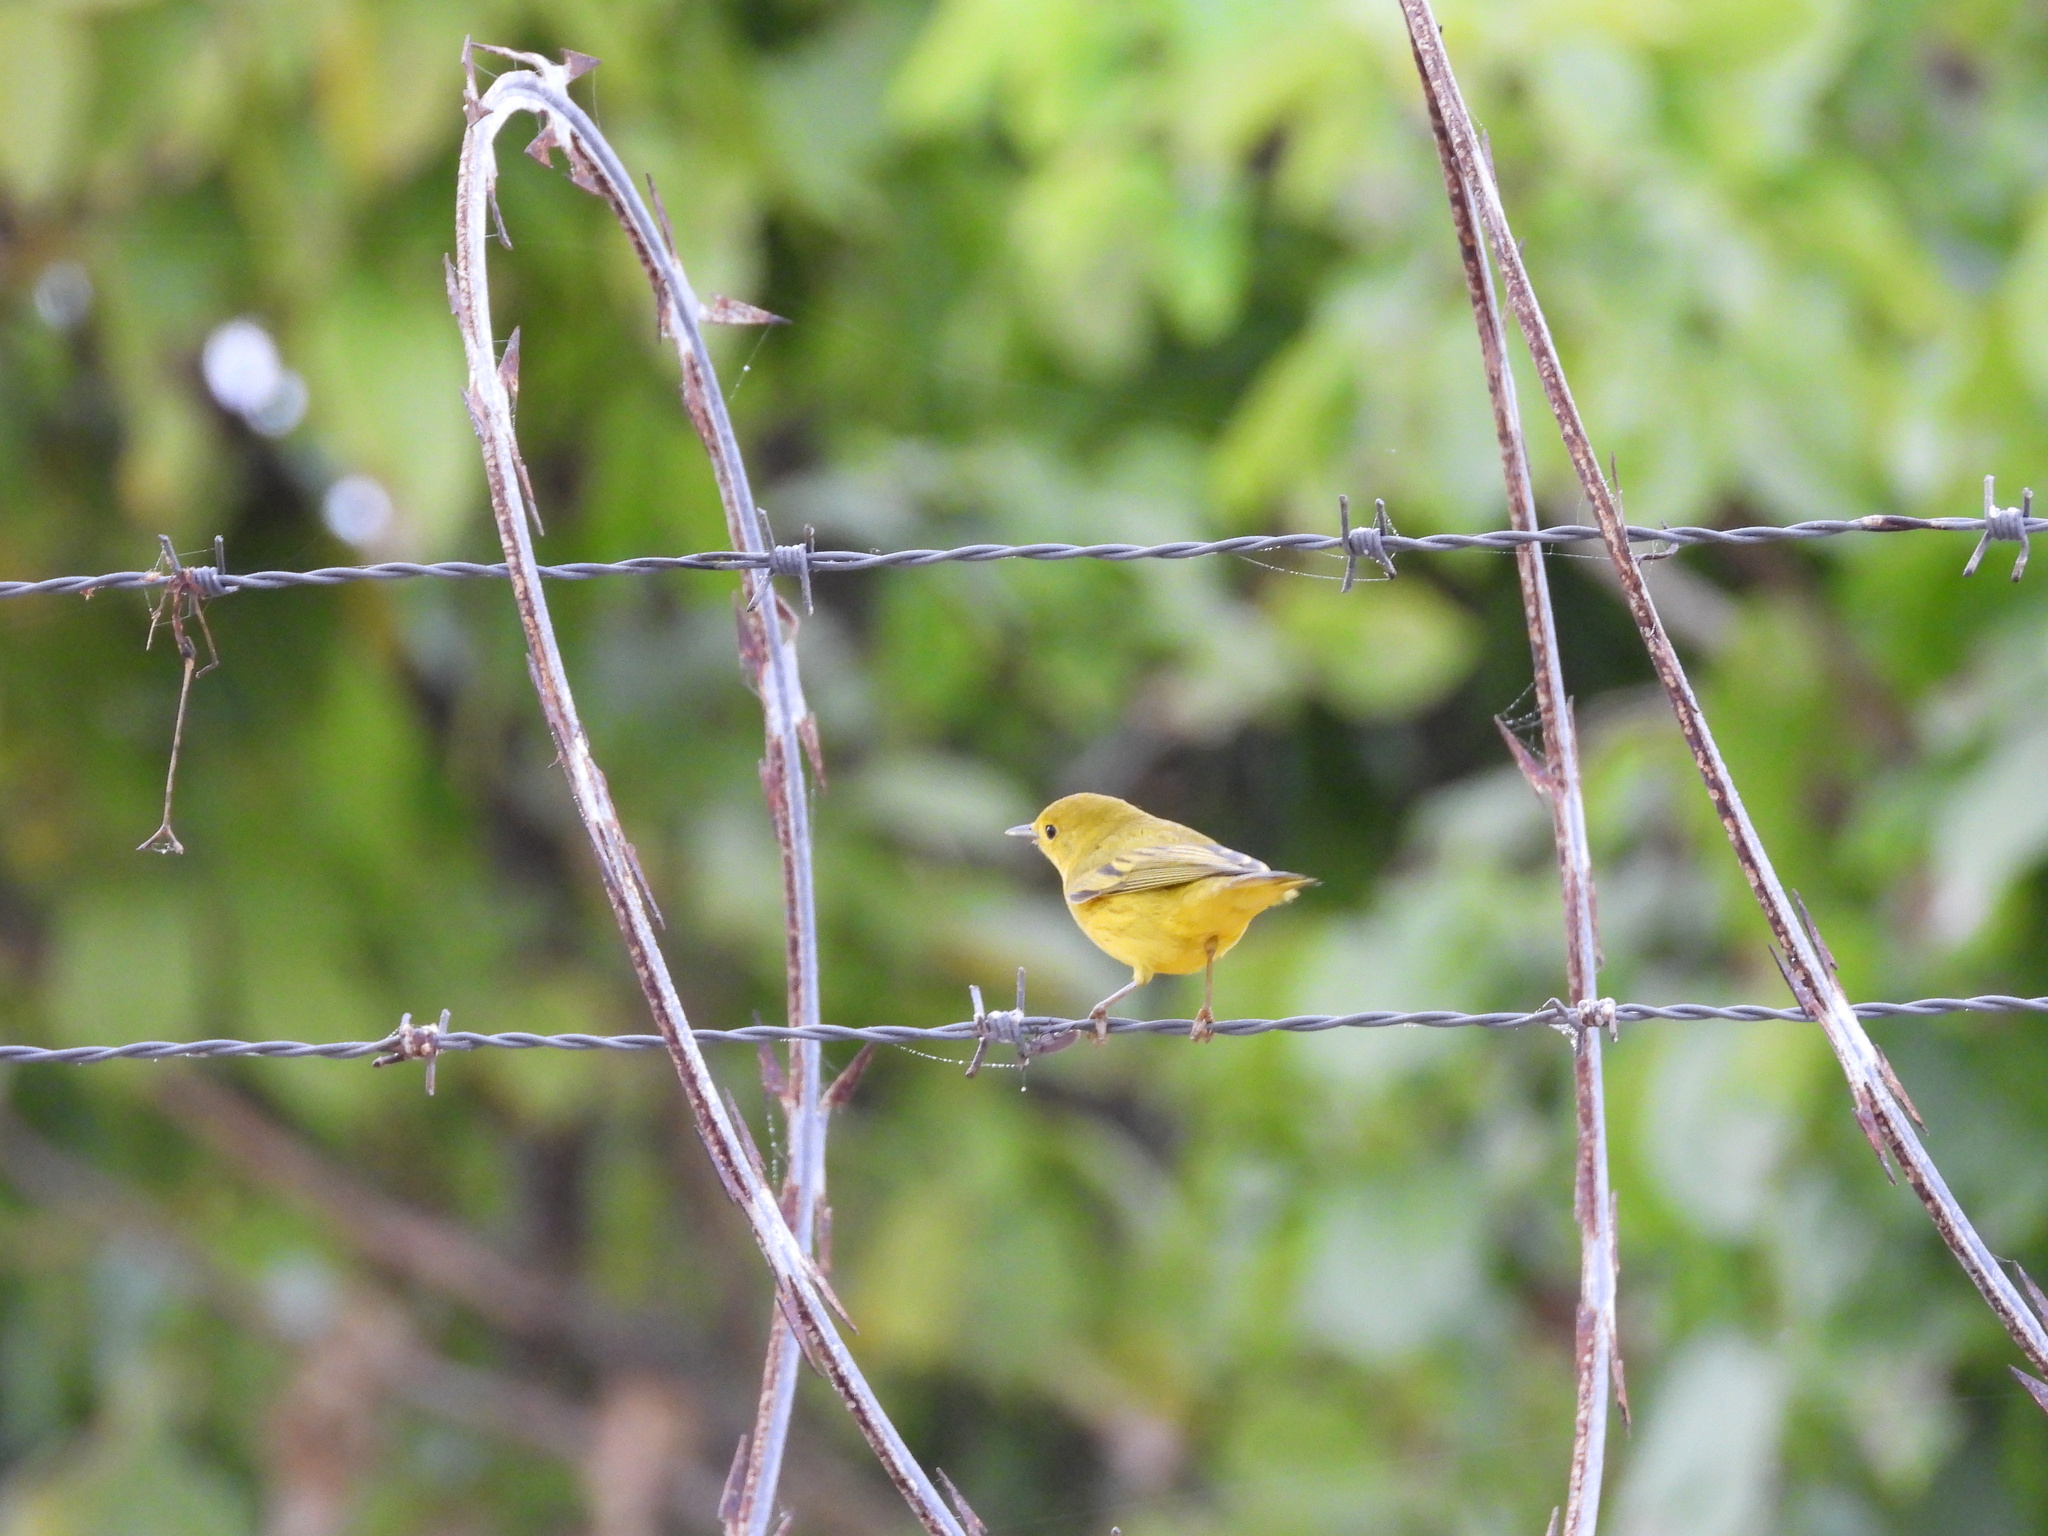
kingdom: Animalia
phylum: Chordata
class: Aves
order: Passeriformes
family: Parulidae
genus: Setophaga
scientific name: Setophaga petechia
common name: Yellow warbler
